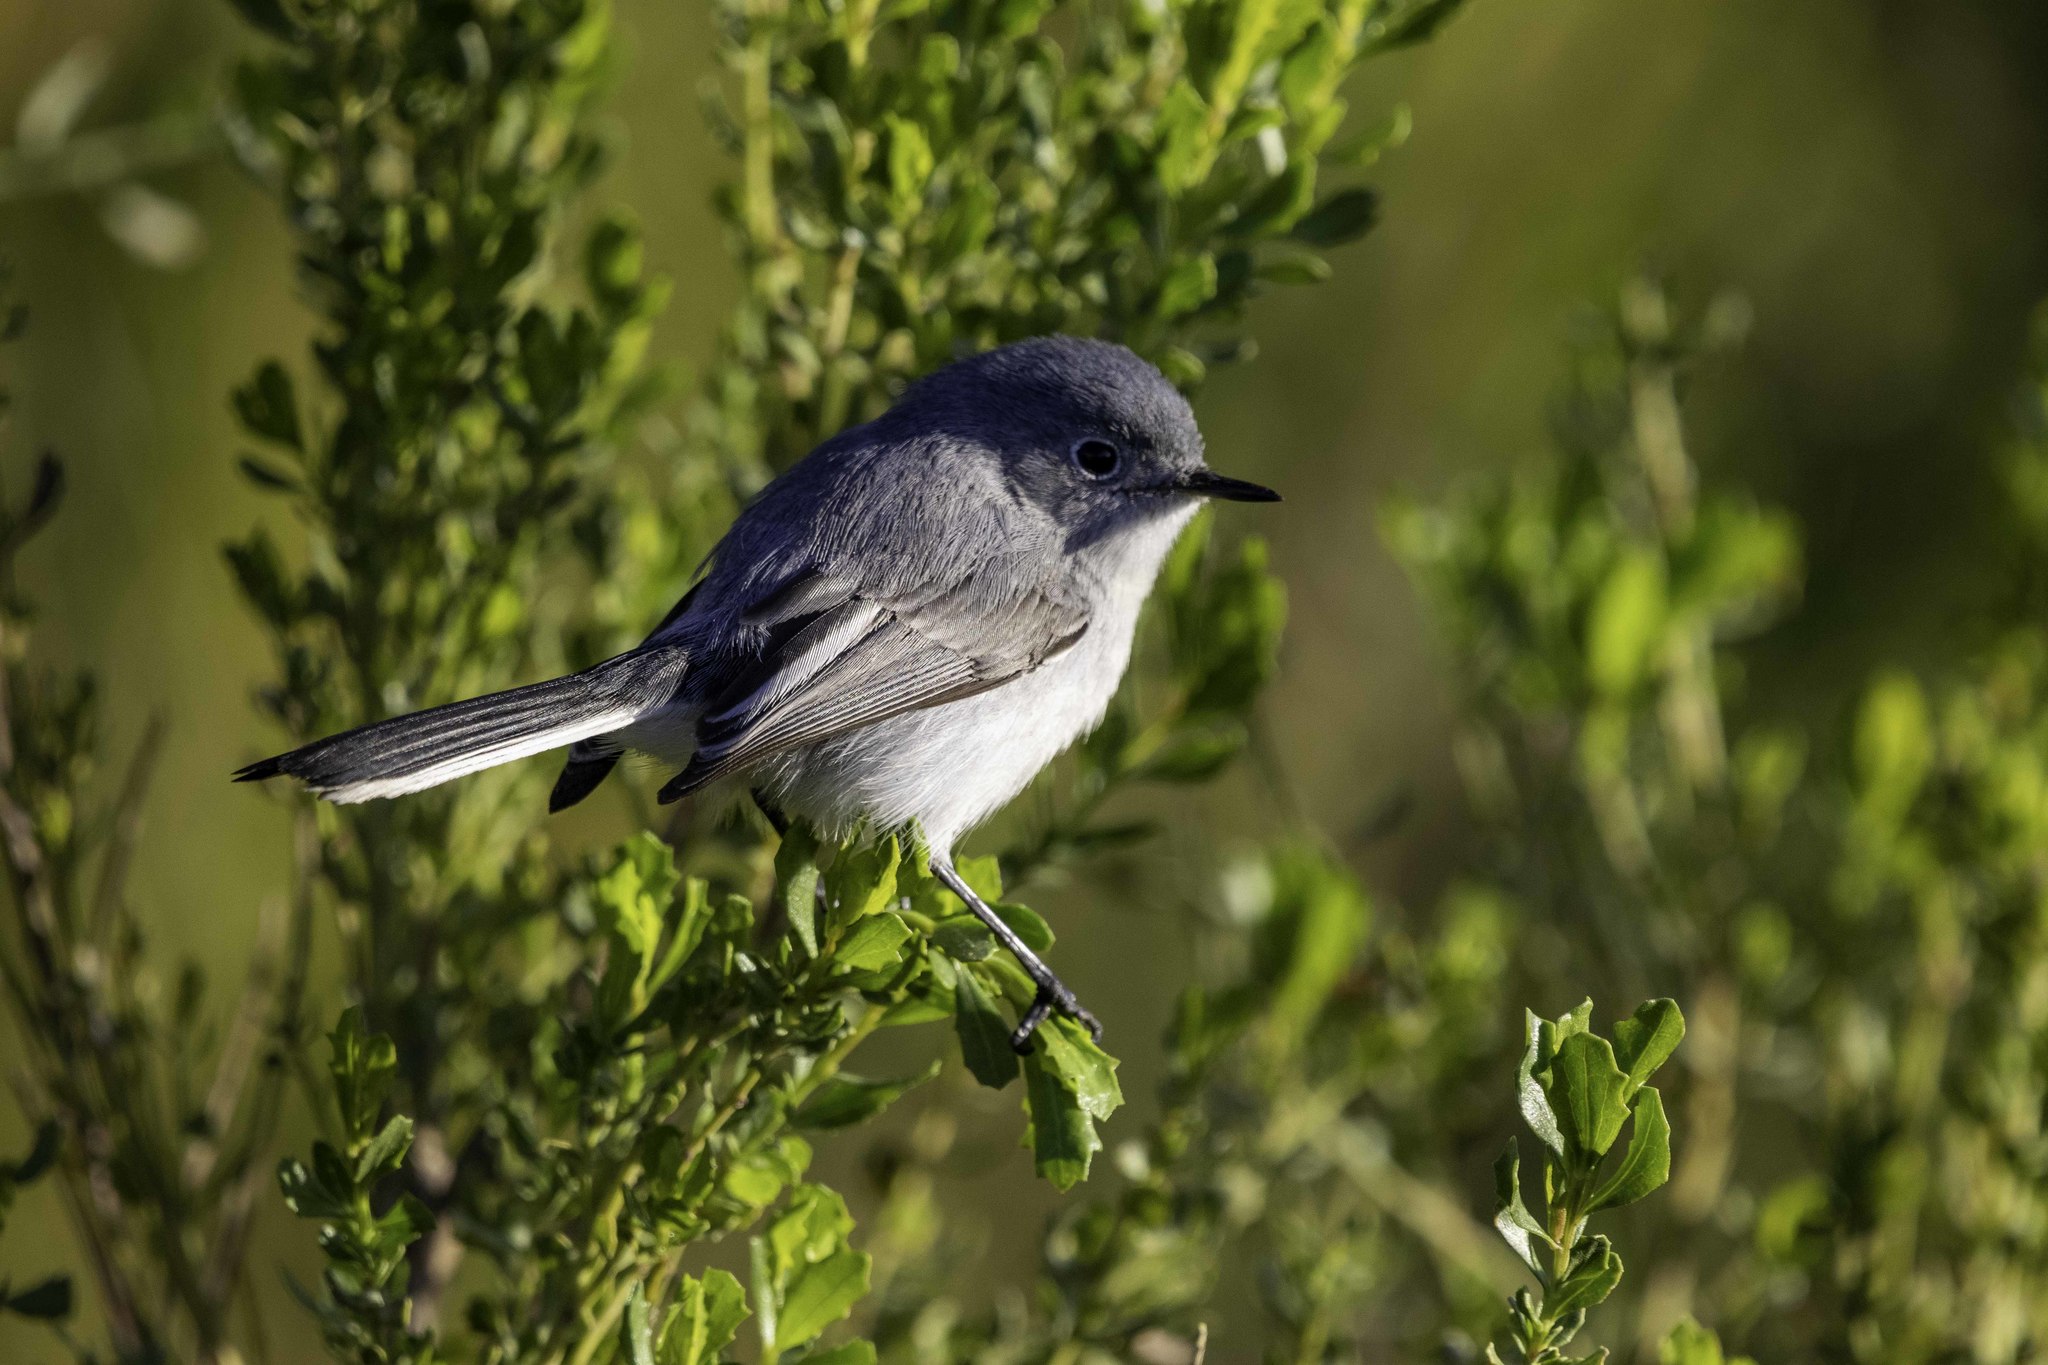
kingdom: Animalia
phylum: Chordata
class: Aves
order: Passeriformes
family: Polioptilidae
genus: Polioptila
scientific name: Polioptila caerulea
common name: Blue-gray gnatcatcher
